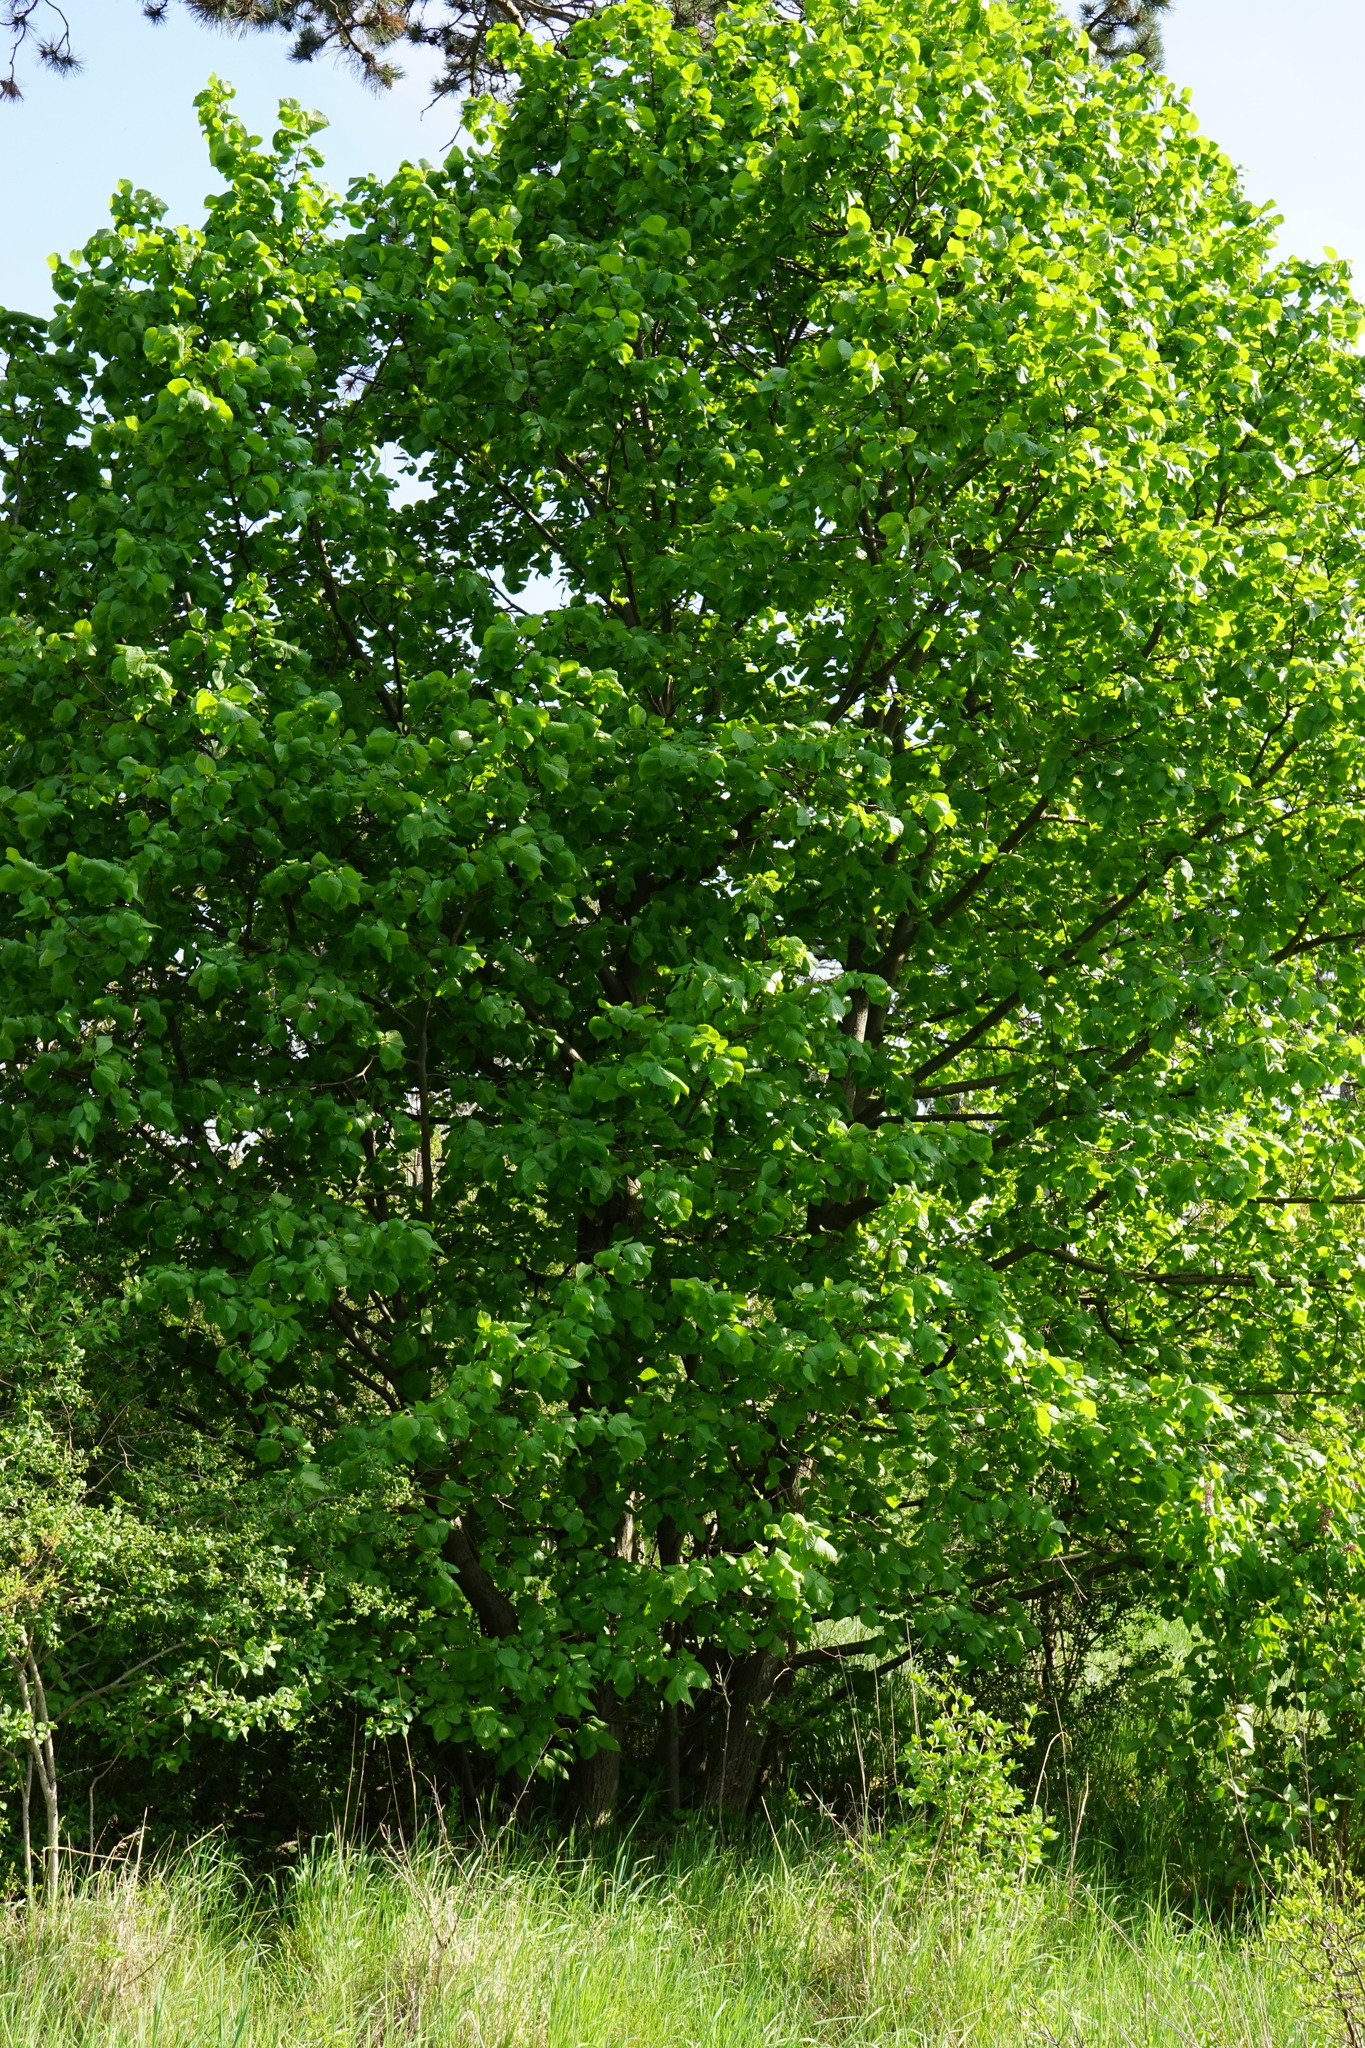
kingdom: Plantae
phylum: Tracheophyta
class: Magnoliopsida
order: Malvales
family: Malvaceae
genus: Tilia
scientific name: Tilia platyphyllos
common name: Large-leaved lime
